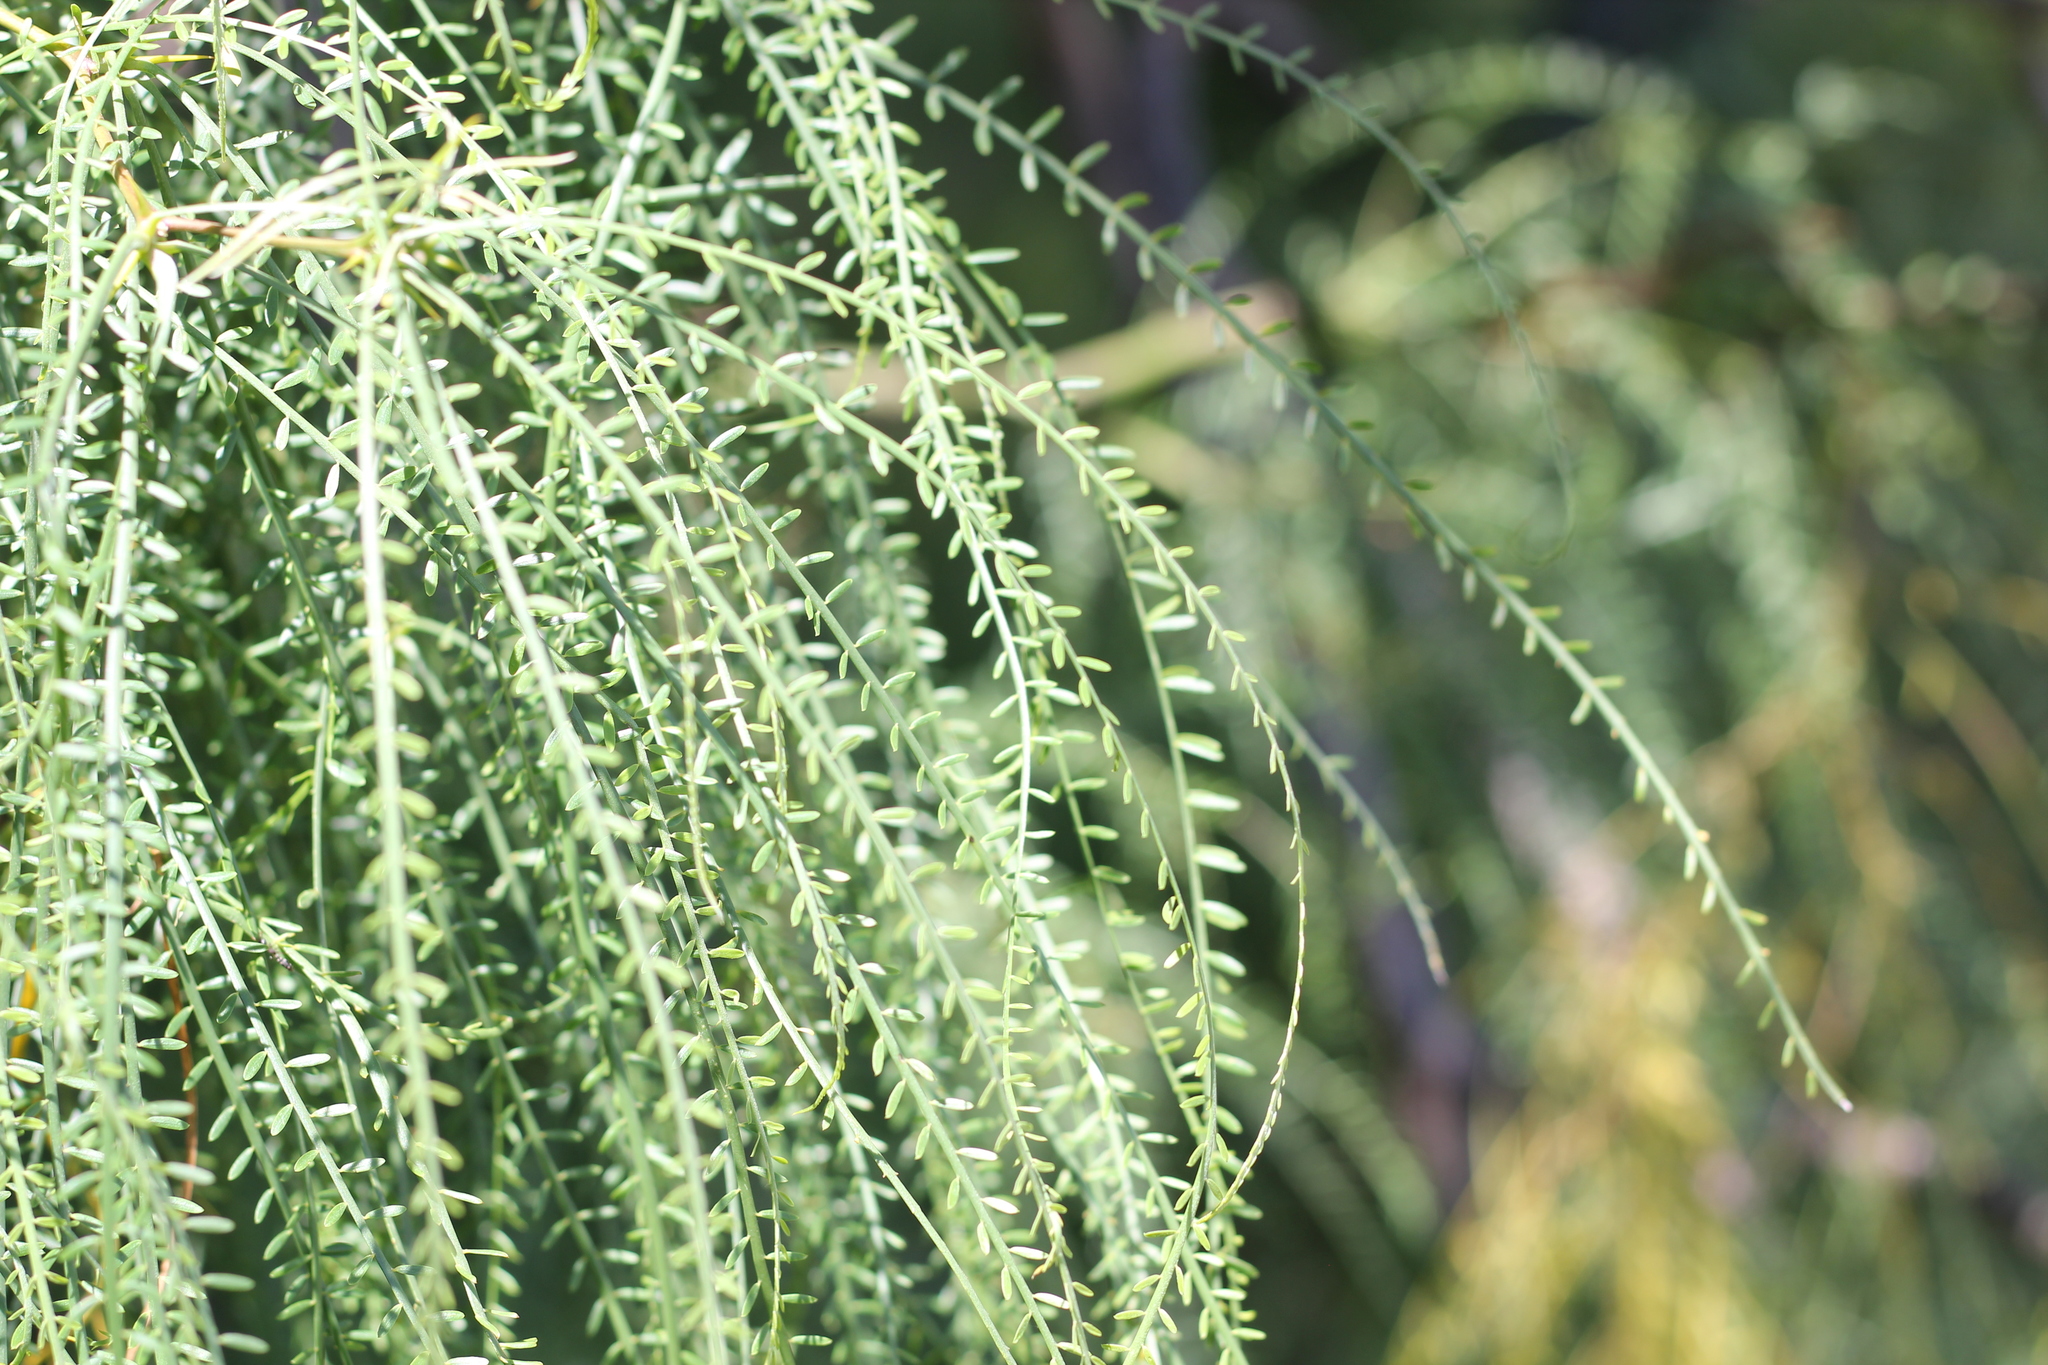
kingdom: Plantae
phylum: Tracheophyta
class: Magnoliopsida
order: Fabales
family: Fabaceae
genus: Parkinsonia
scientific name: Parkinsonia aculeata
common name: Jerusalem thorn
